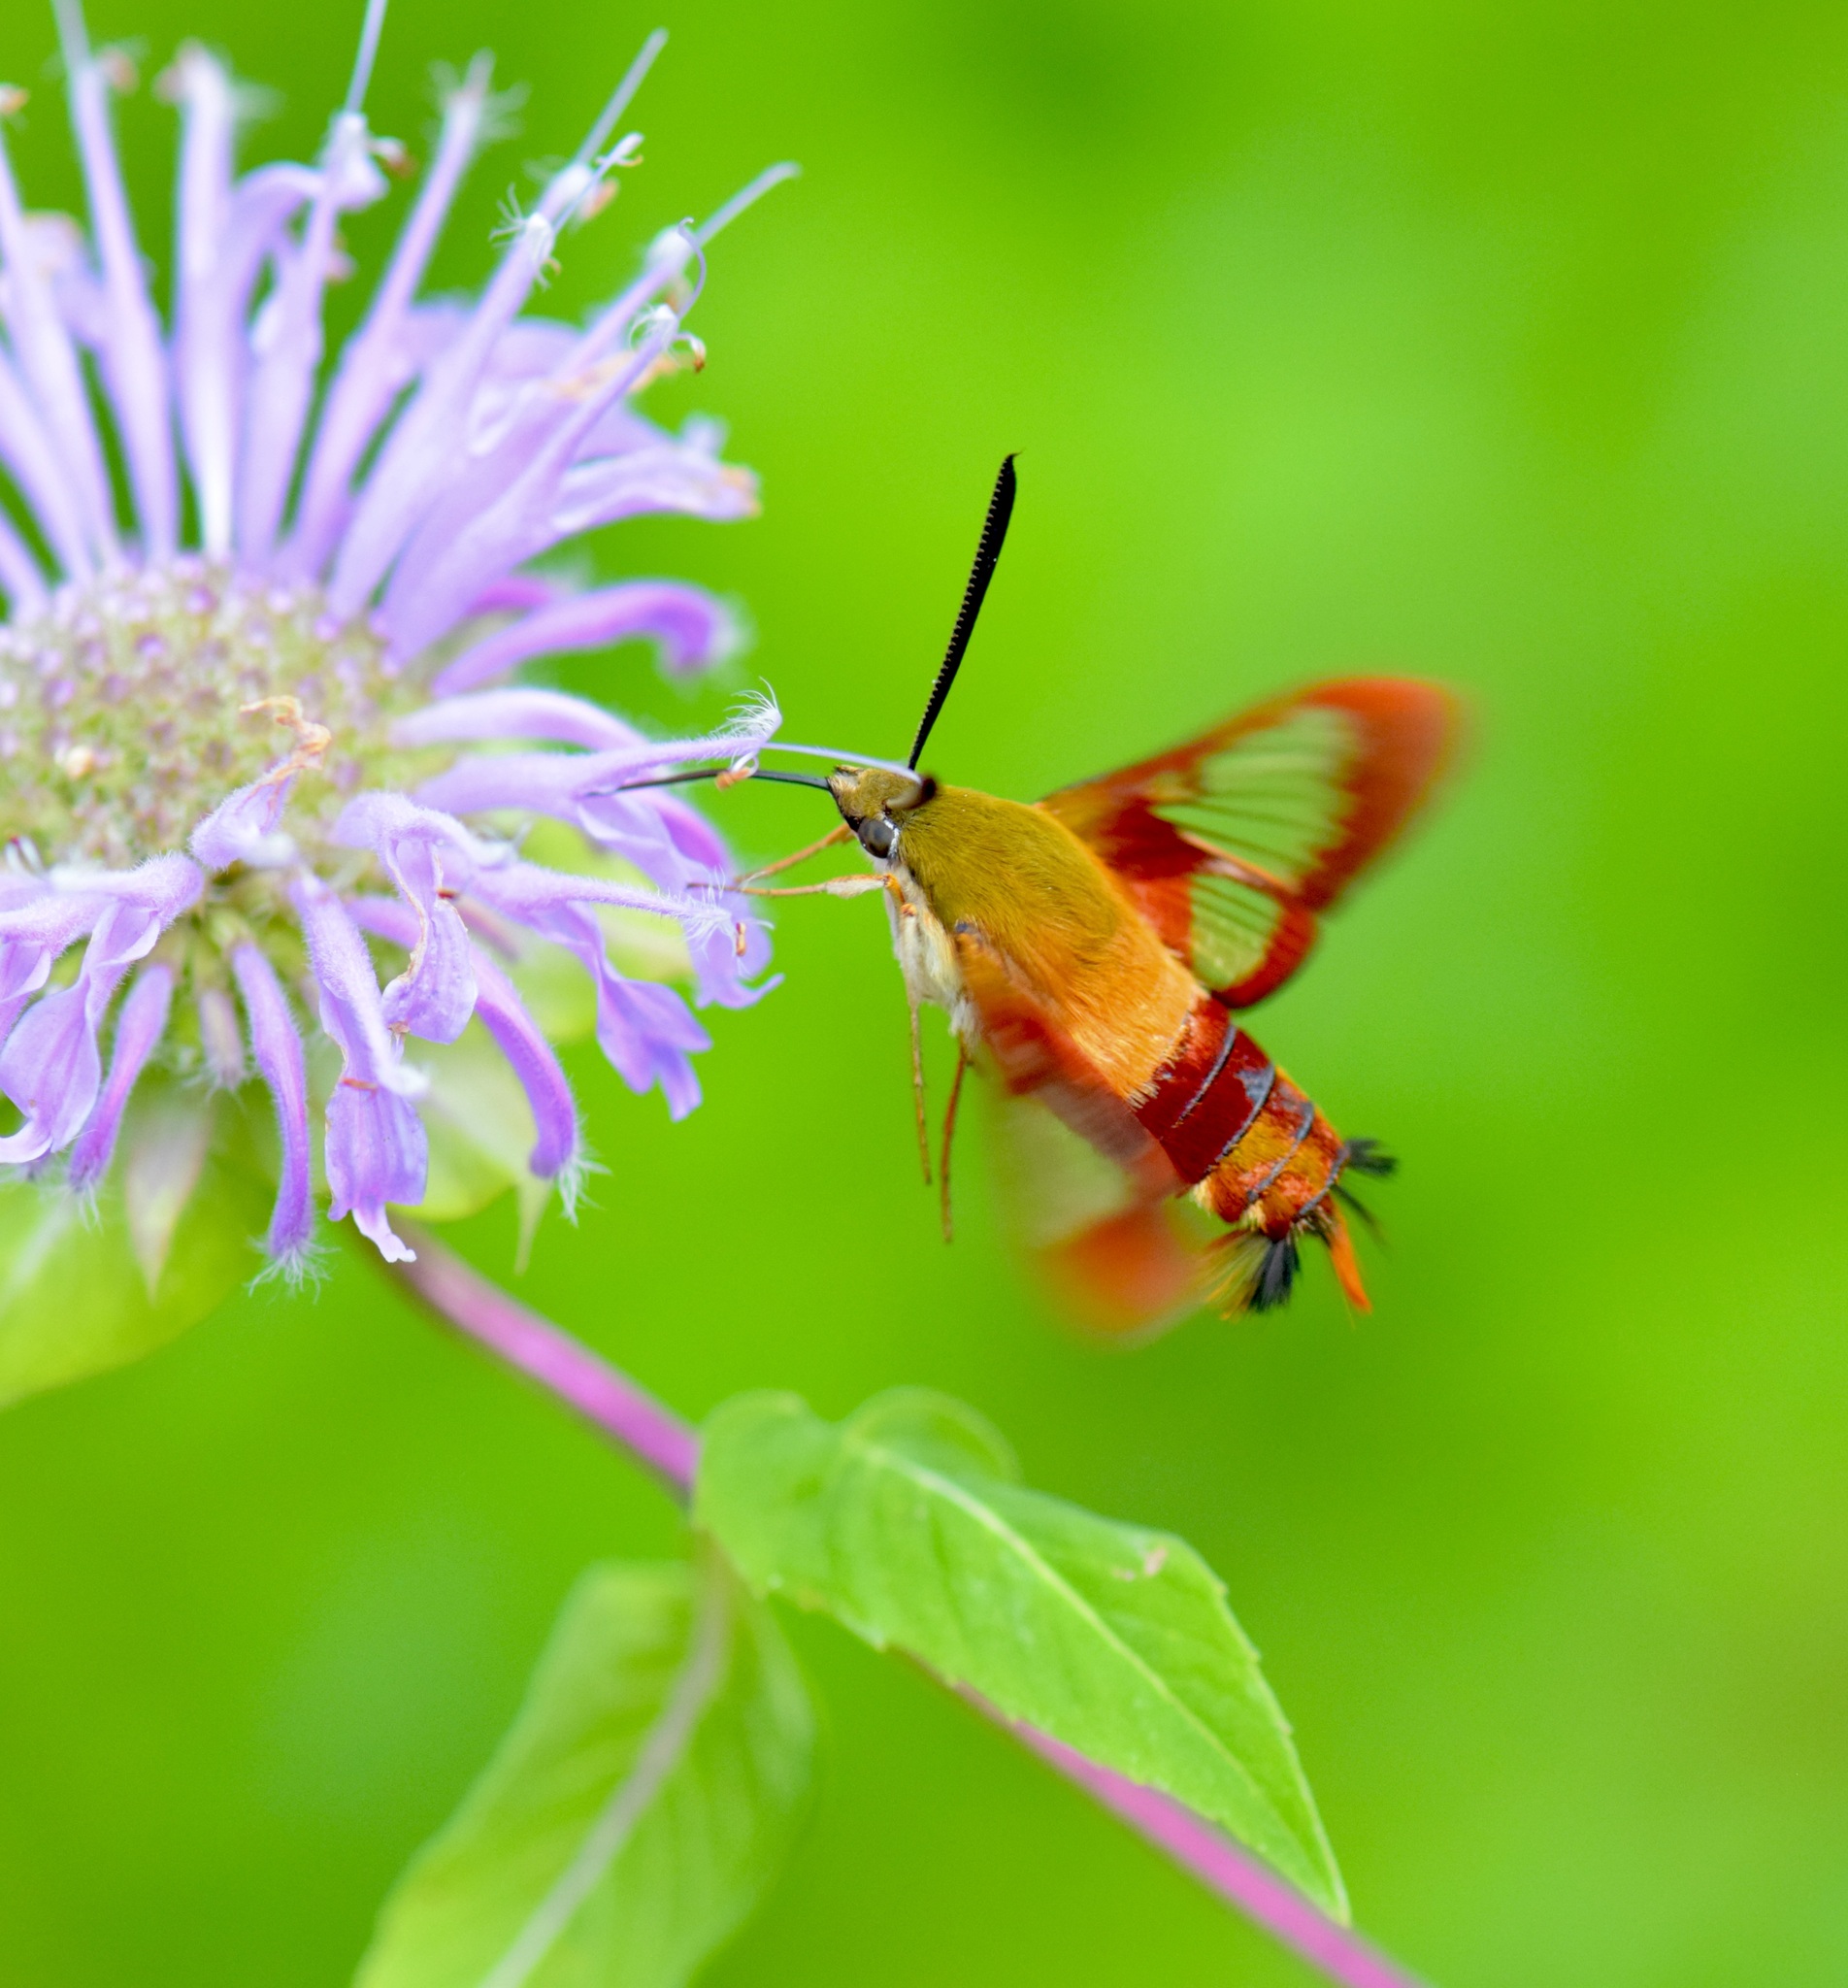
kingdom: Animalia
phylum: Arthropoda
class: Insecta
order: Lepidoptera
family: Sphingidae
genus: Hemaris
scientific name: Hemaris thysbe
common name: Common clear-wing
